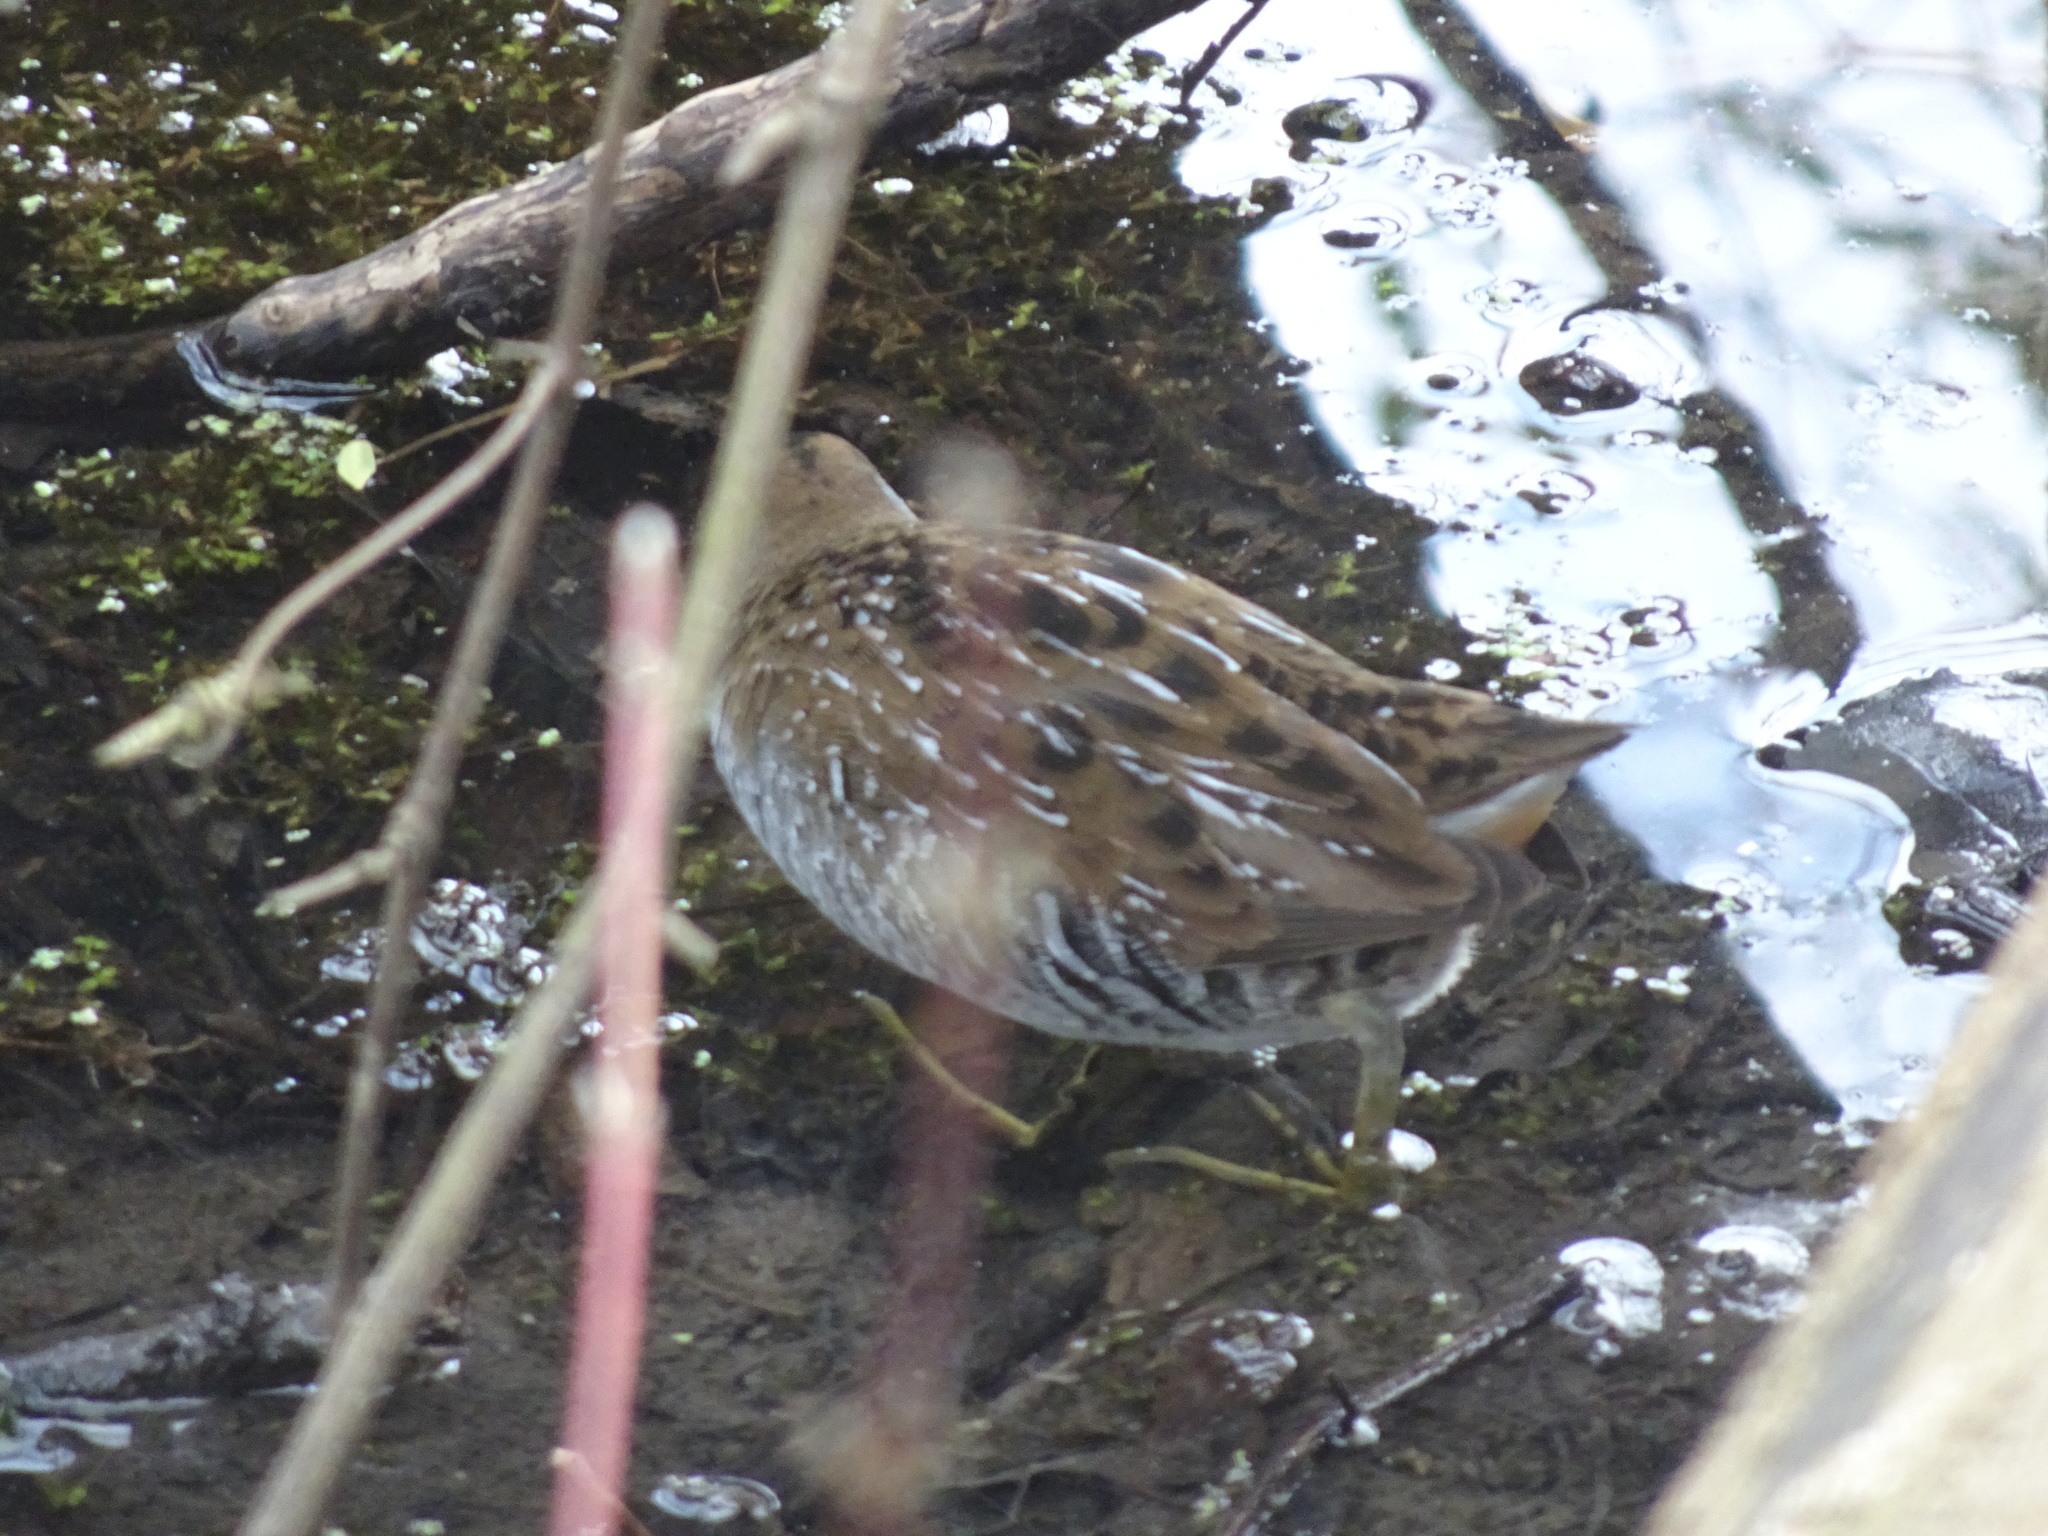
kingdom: Animalia
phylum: Chordata
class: Aves
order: Gruiformes
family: Rallidae
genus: Porzana
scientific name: Porzana carolina
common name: Sora
